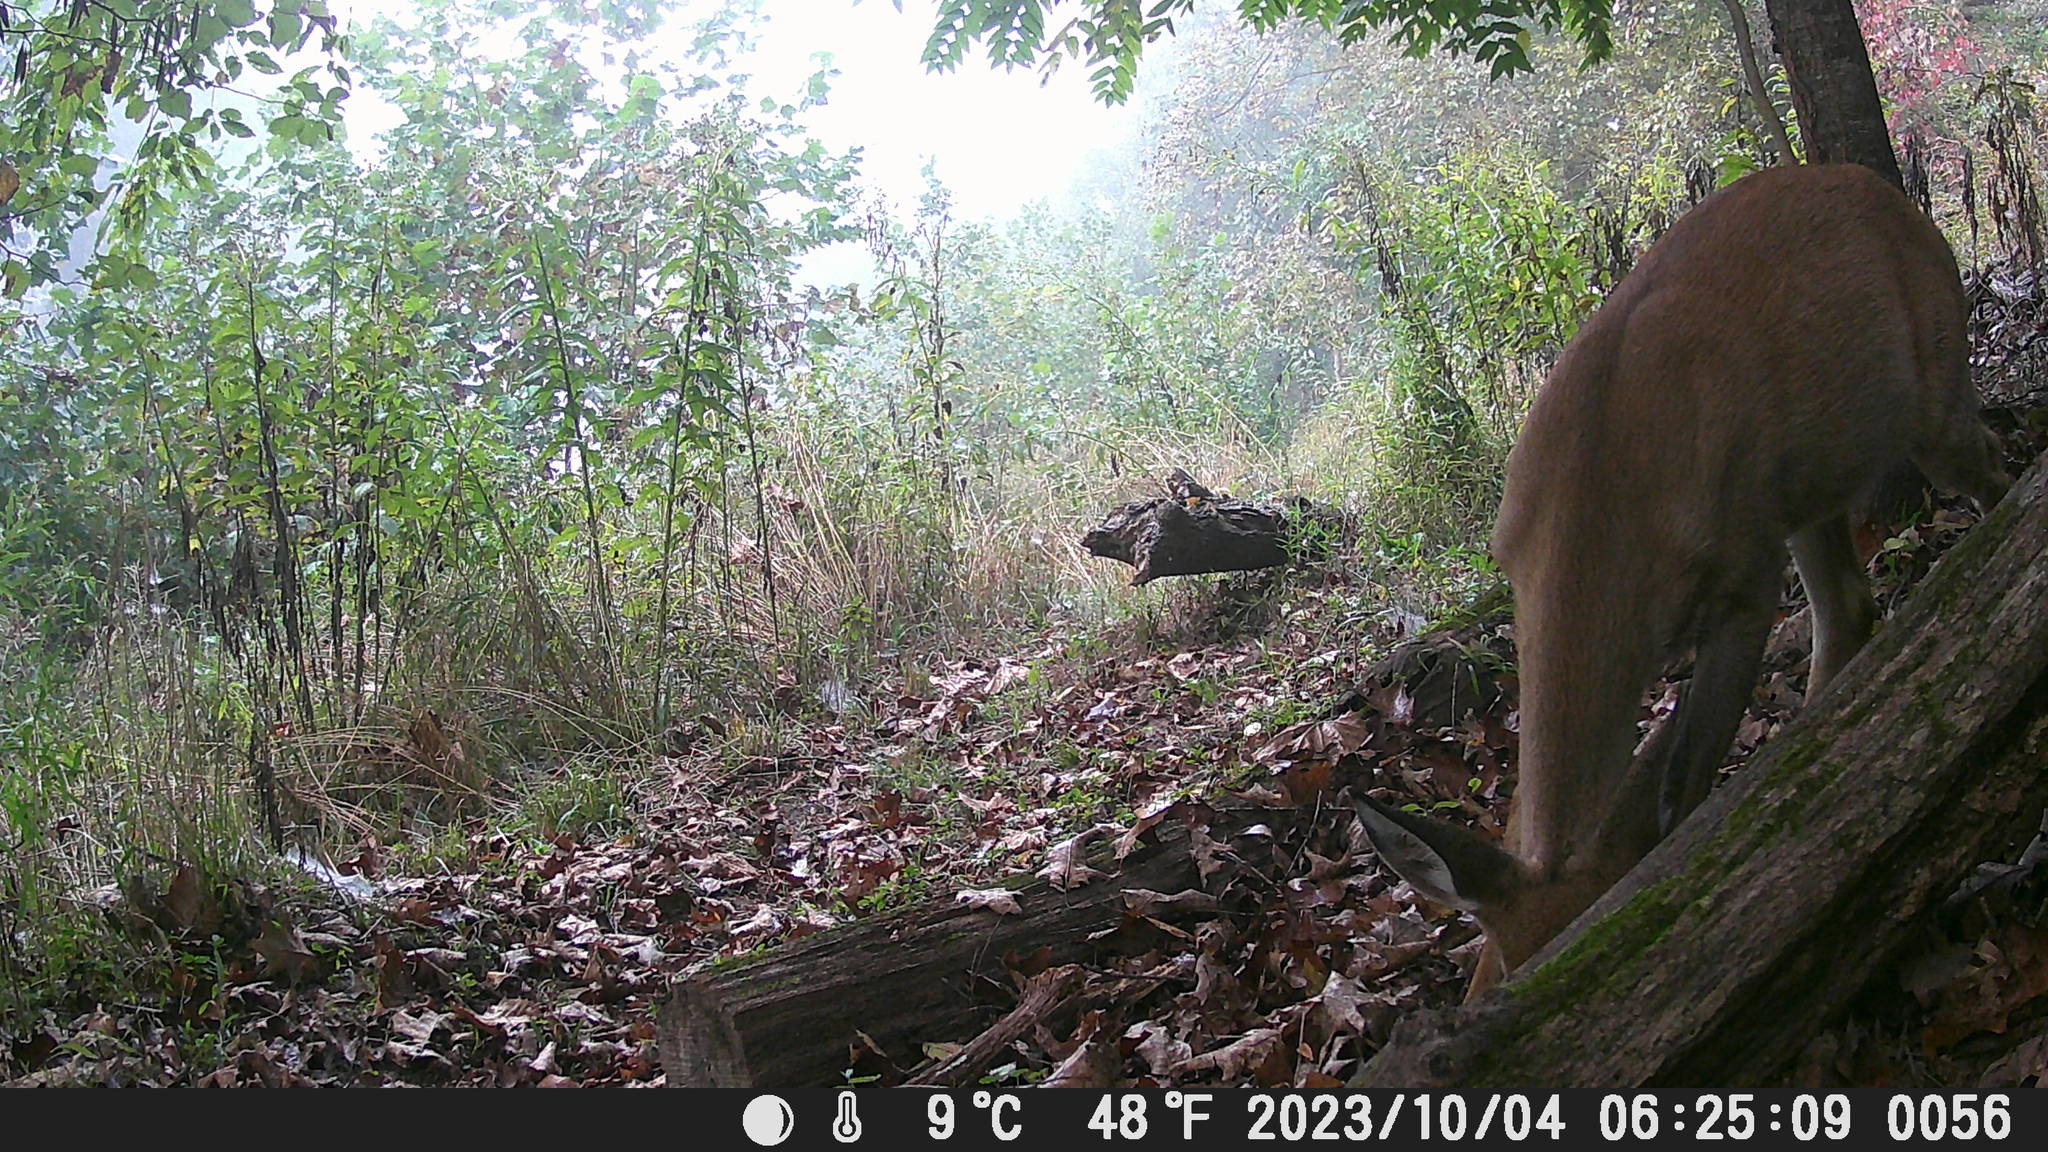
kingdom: Animalia
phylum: Chordata
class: Mammalia
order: Artiodactyla
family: Cervidae
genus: Odocoileus
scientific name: Odocoileus virginianus
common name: White-tailed deer
